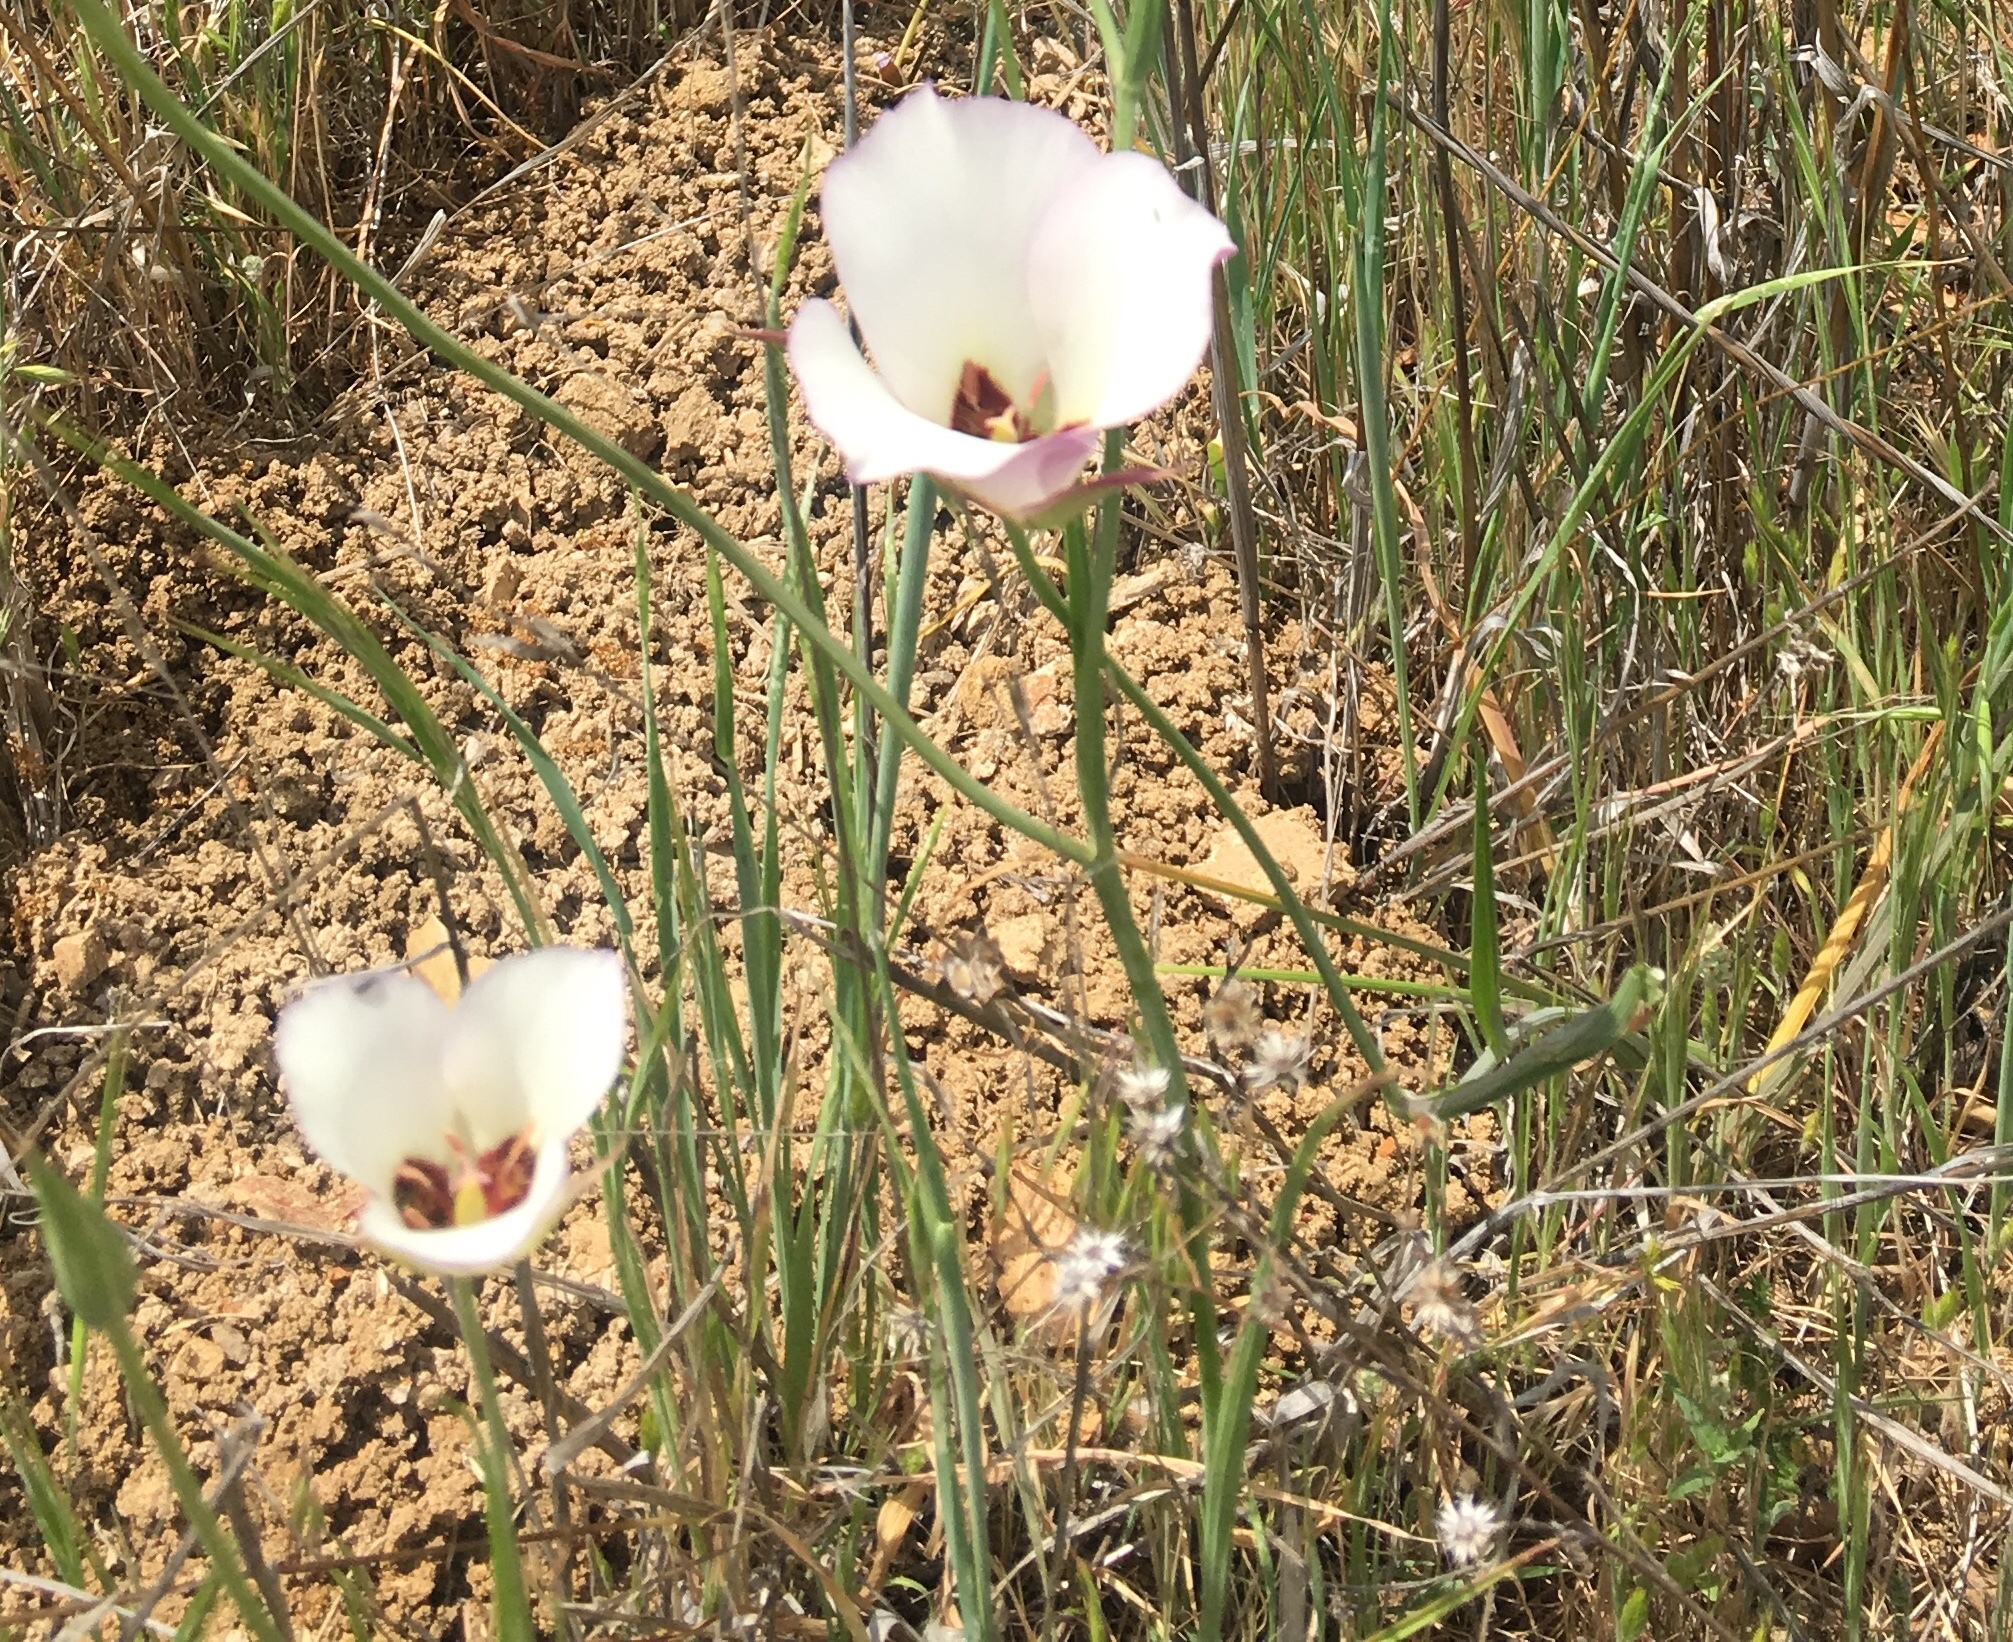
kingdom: Plantae
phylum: Tracheophyta
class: Liliopsida
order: Liliales
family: Liliaceae
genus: Calochortus
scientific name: Calochortus catalinae
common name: Catalina mariposa-lily
